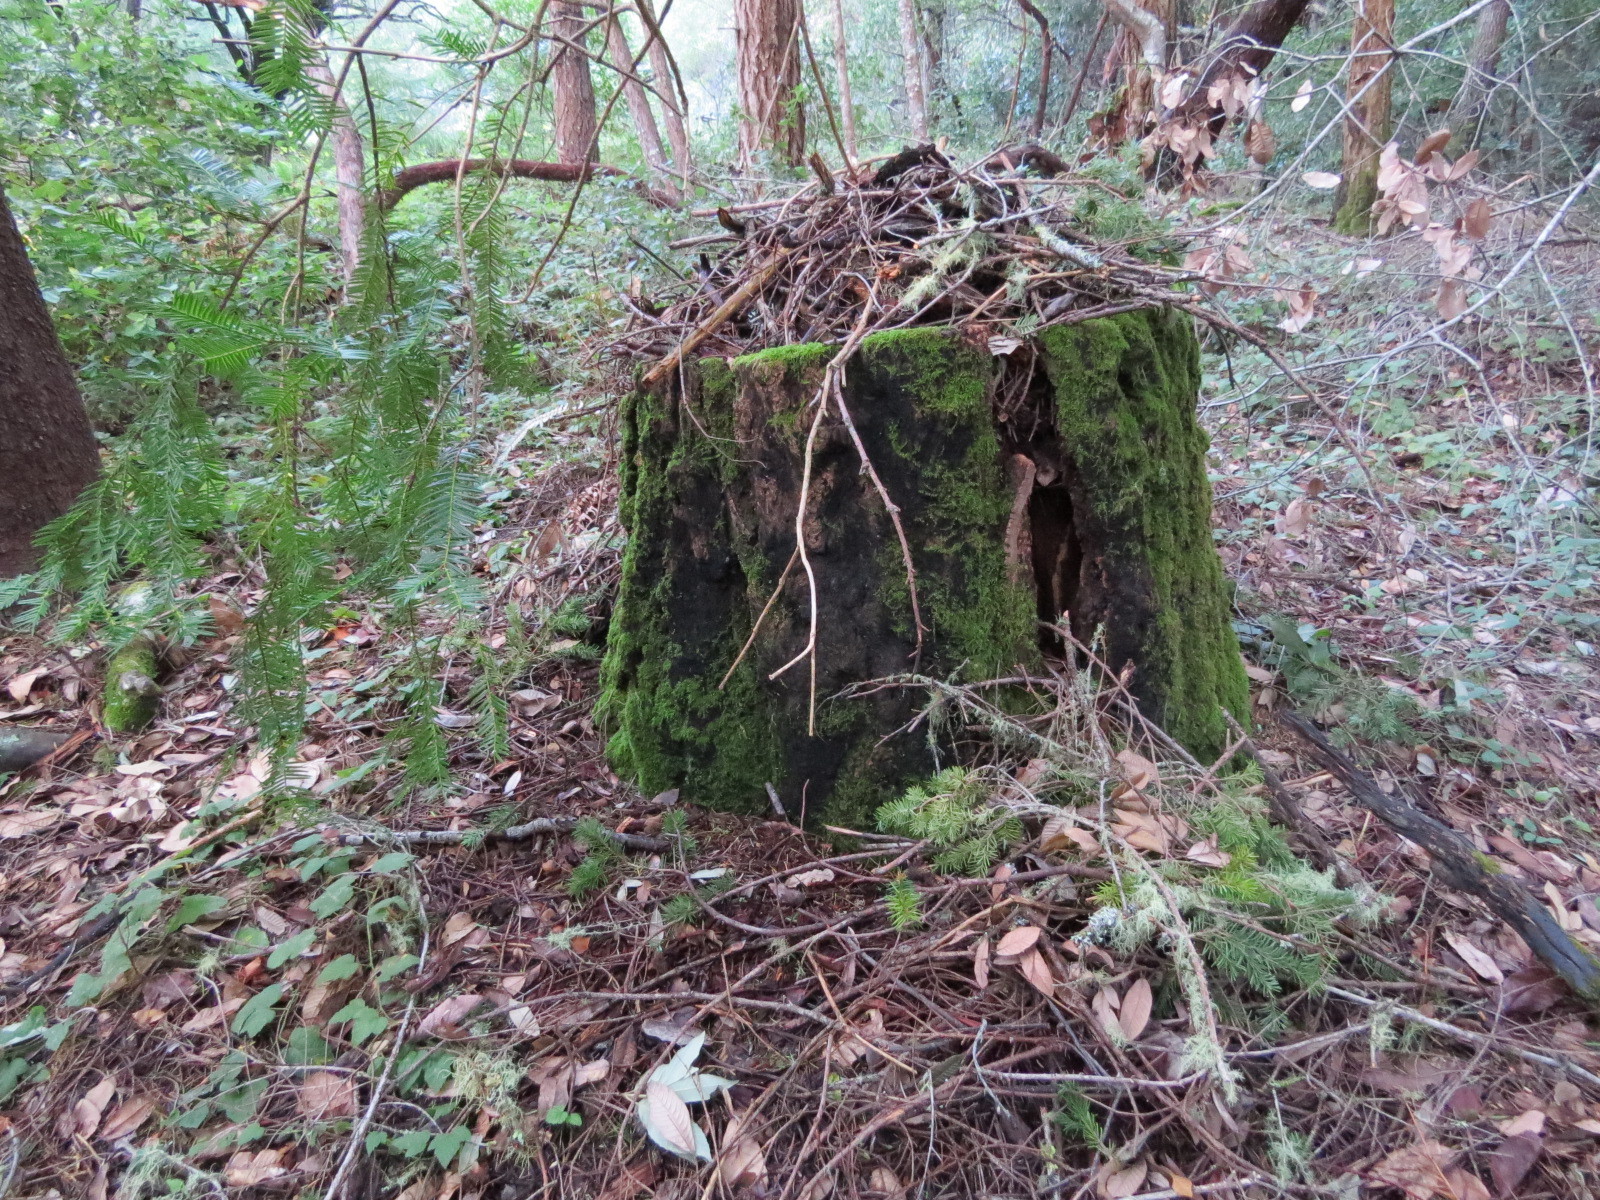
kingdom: Animalia
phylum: Chordata
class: Mammalia
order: Rodentia
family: Cricetidae
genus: Neotoma
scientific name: Neotoma fuscipes
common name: Dusky-footed woodrat
